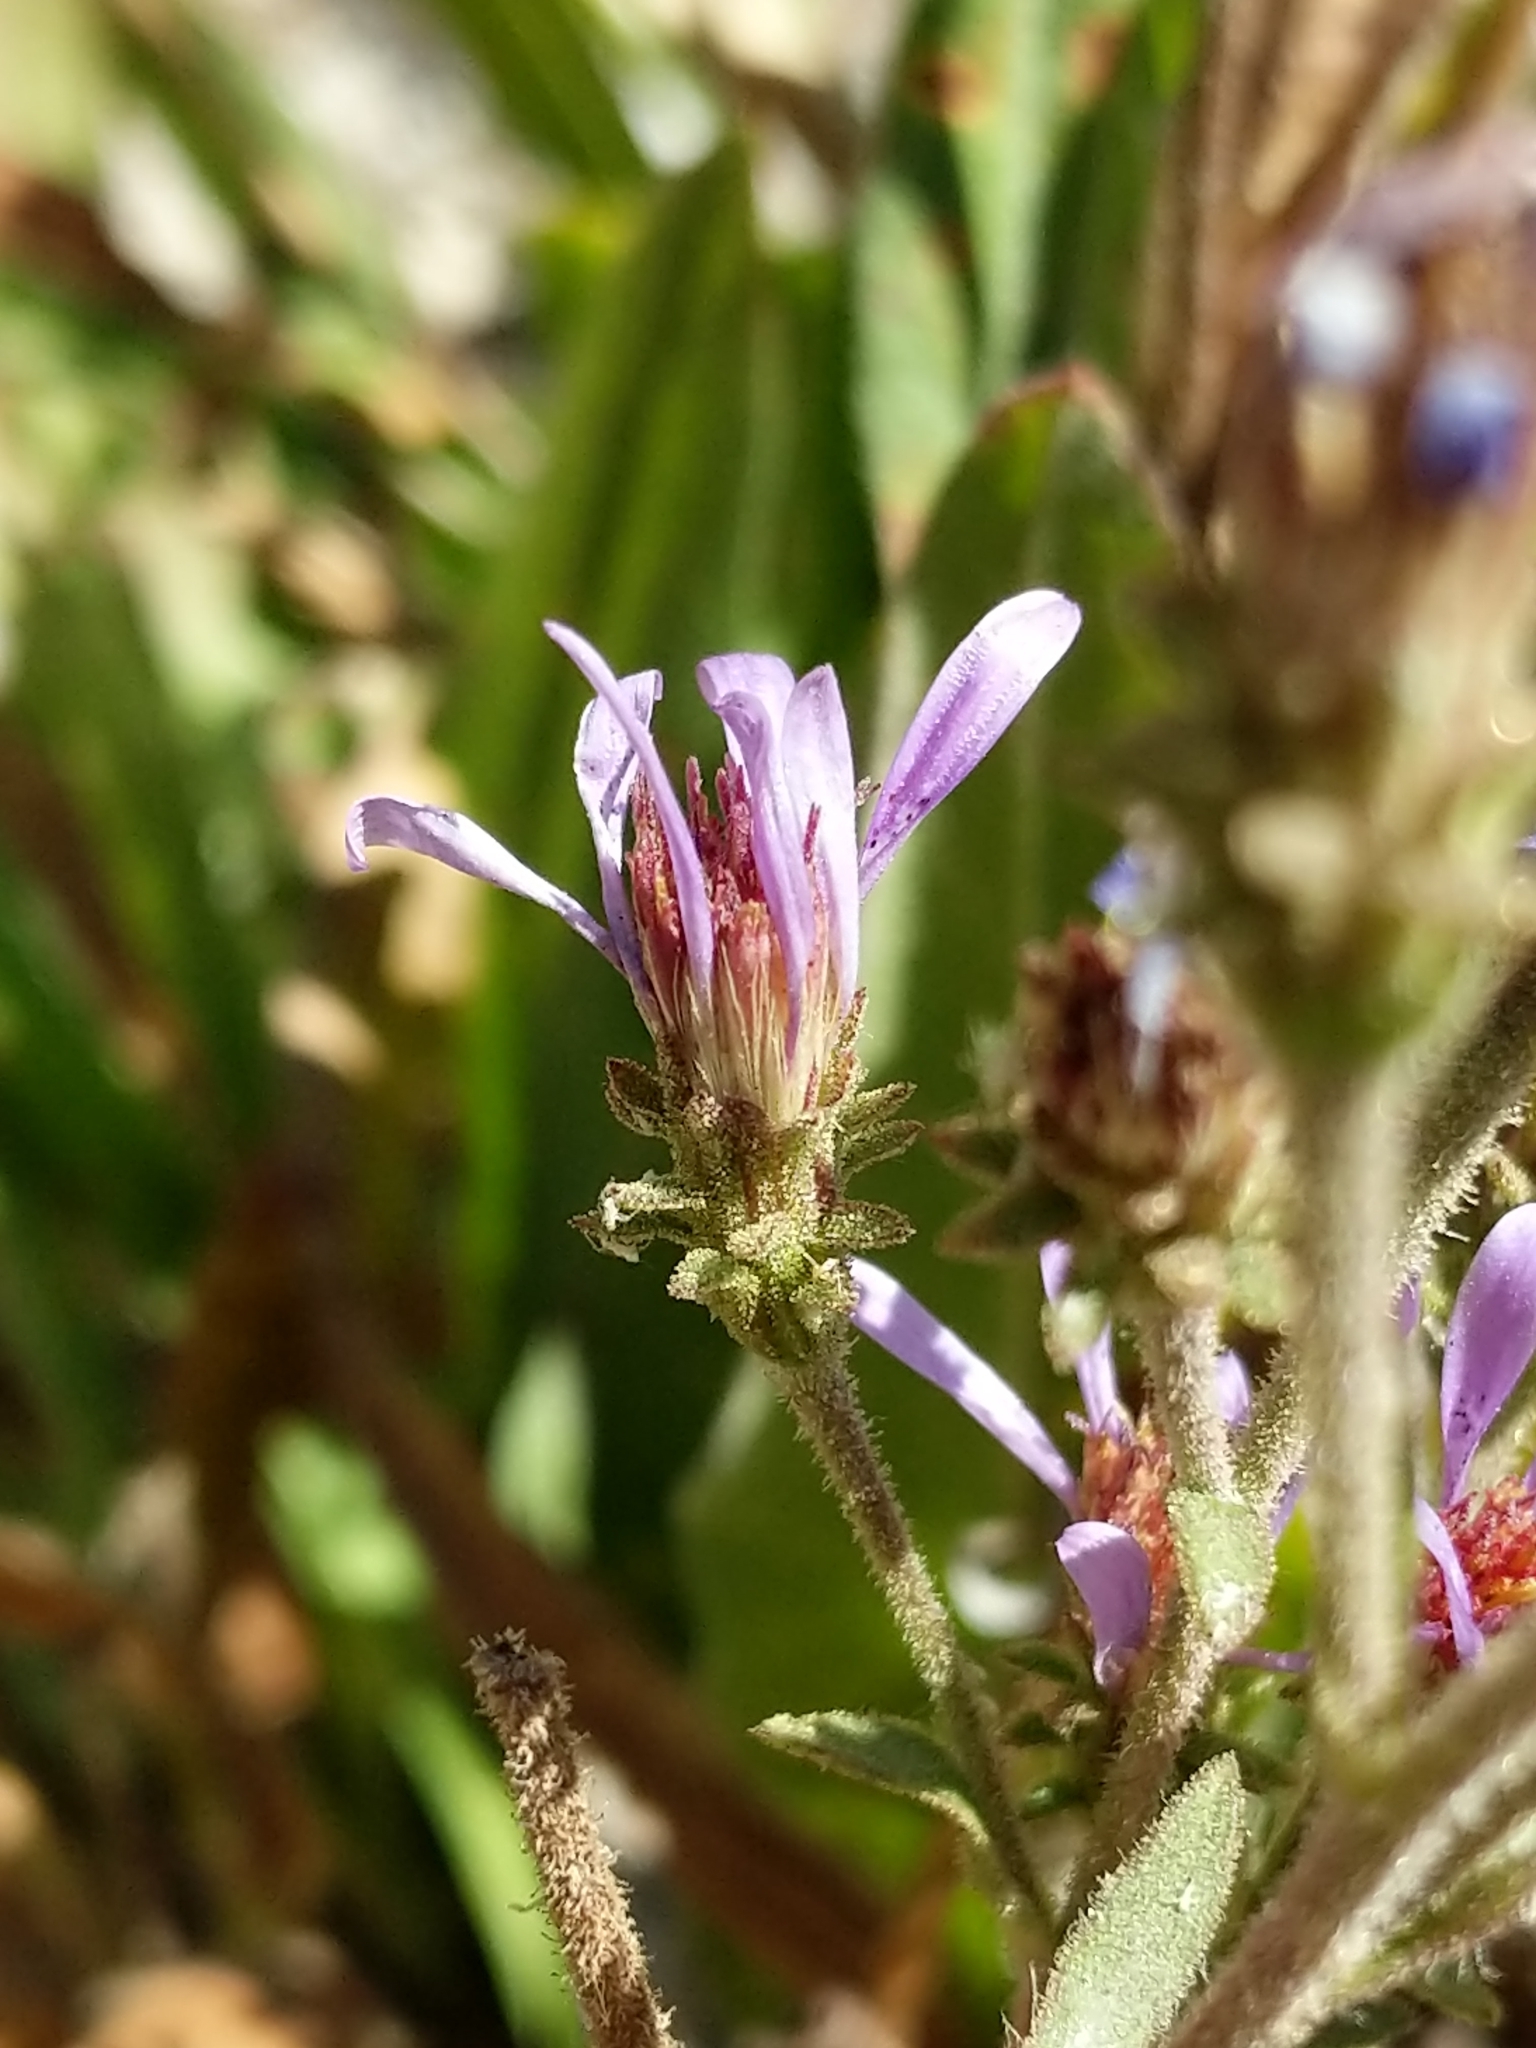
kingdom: Plantae
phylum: Tracheophyta
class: Magnoliopsida
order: Asterales
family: Asteraceae
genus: Eurybia
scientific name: Eurybia integrifolia
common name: Thick-stem aster
